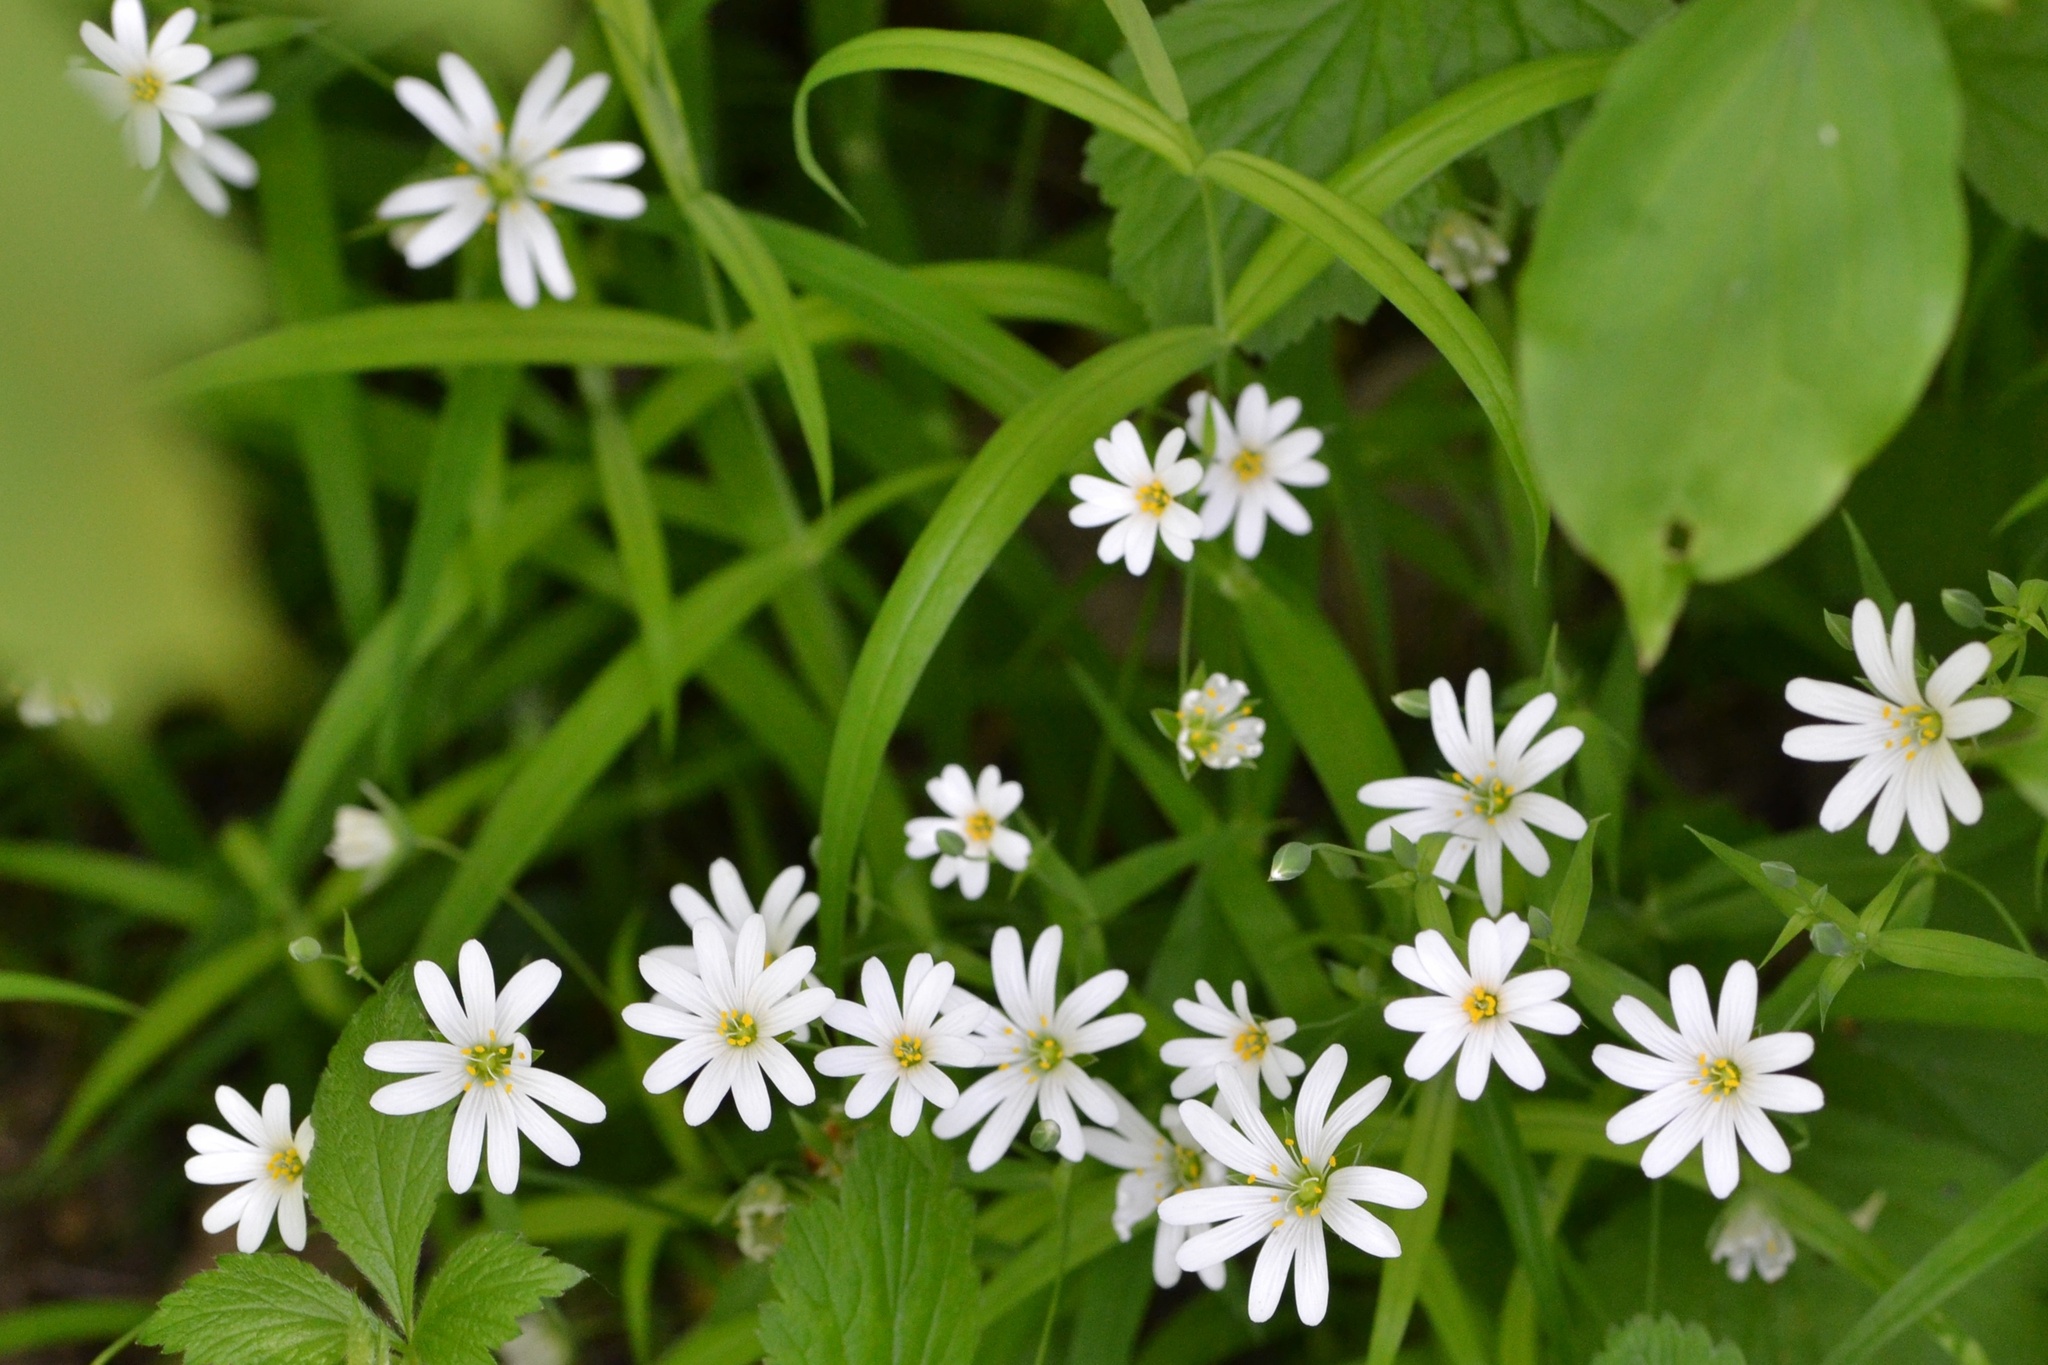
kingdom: Plantae
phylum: Tracheophyta
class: Magnoliopsida
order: Caryophyllales
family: Caryophyllaceae
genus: Rabelera
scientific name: Rabelera holostea
